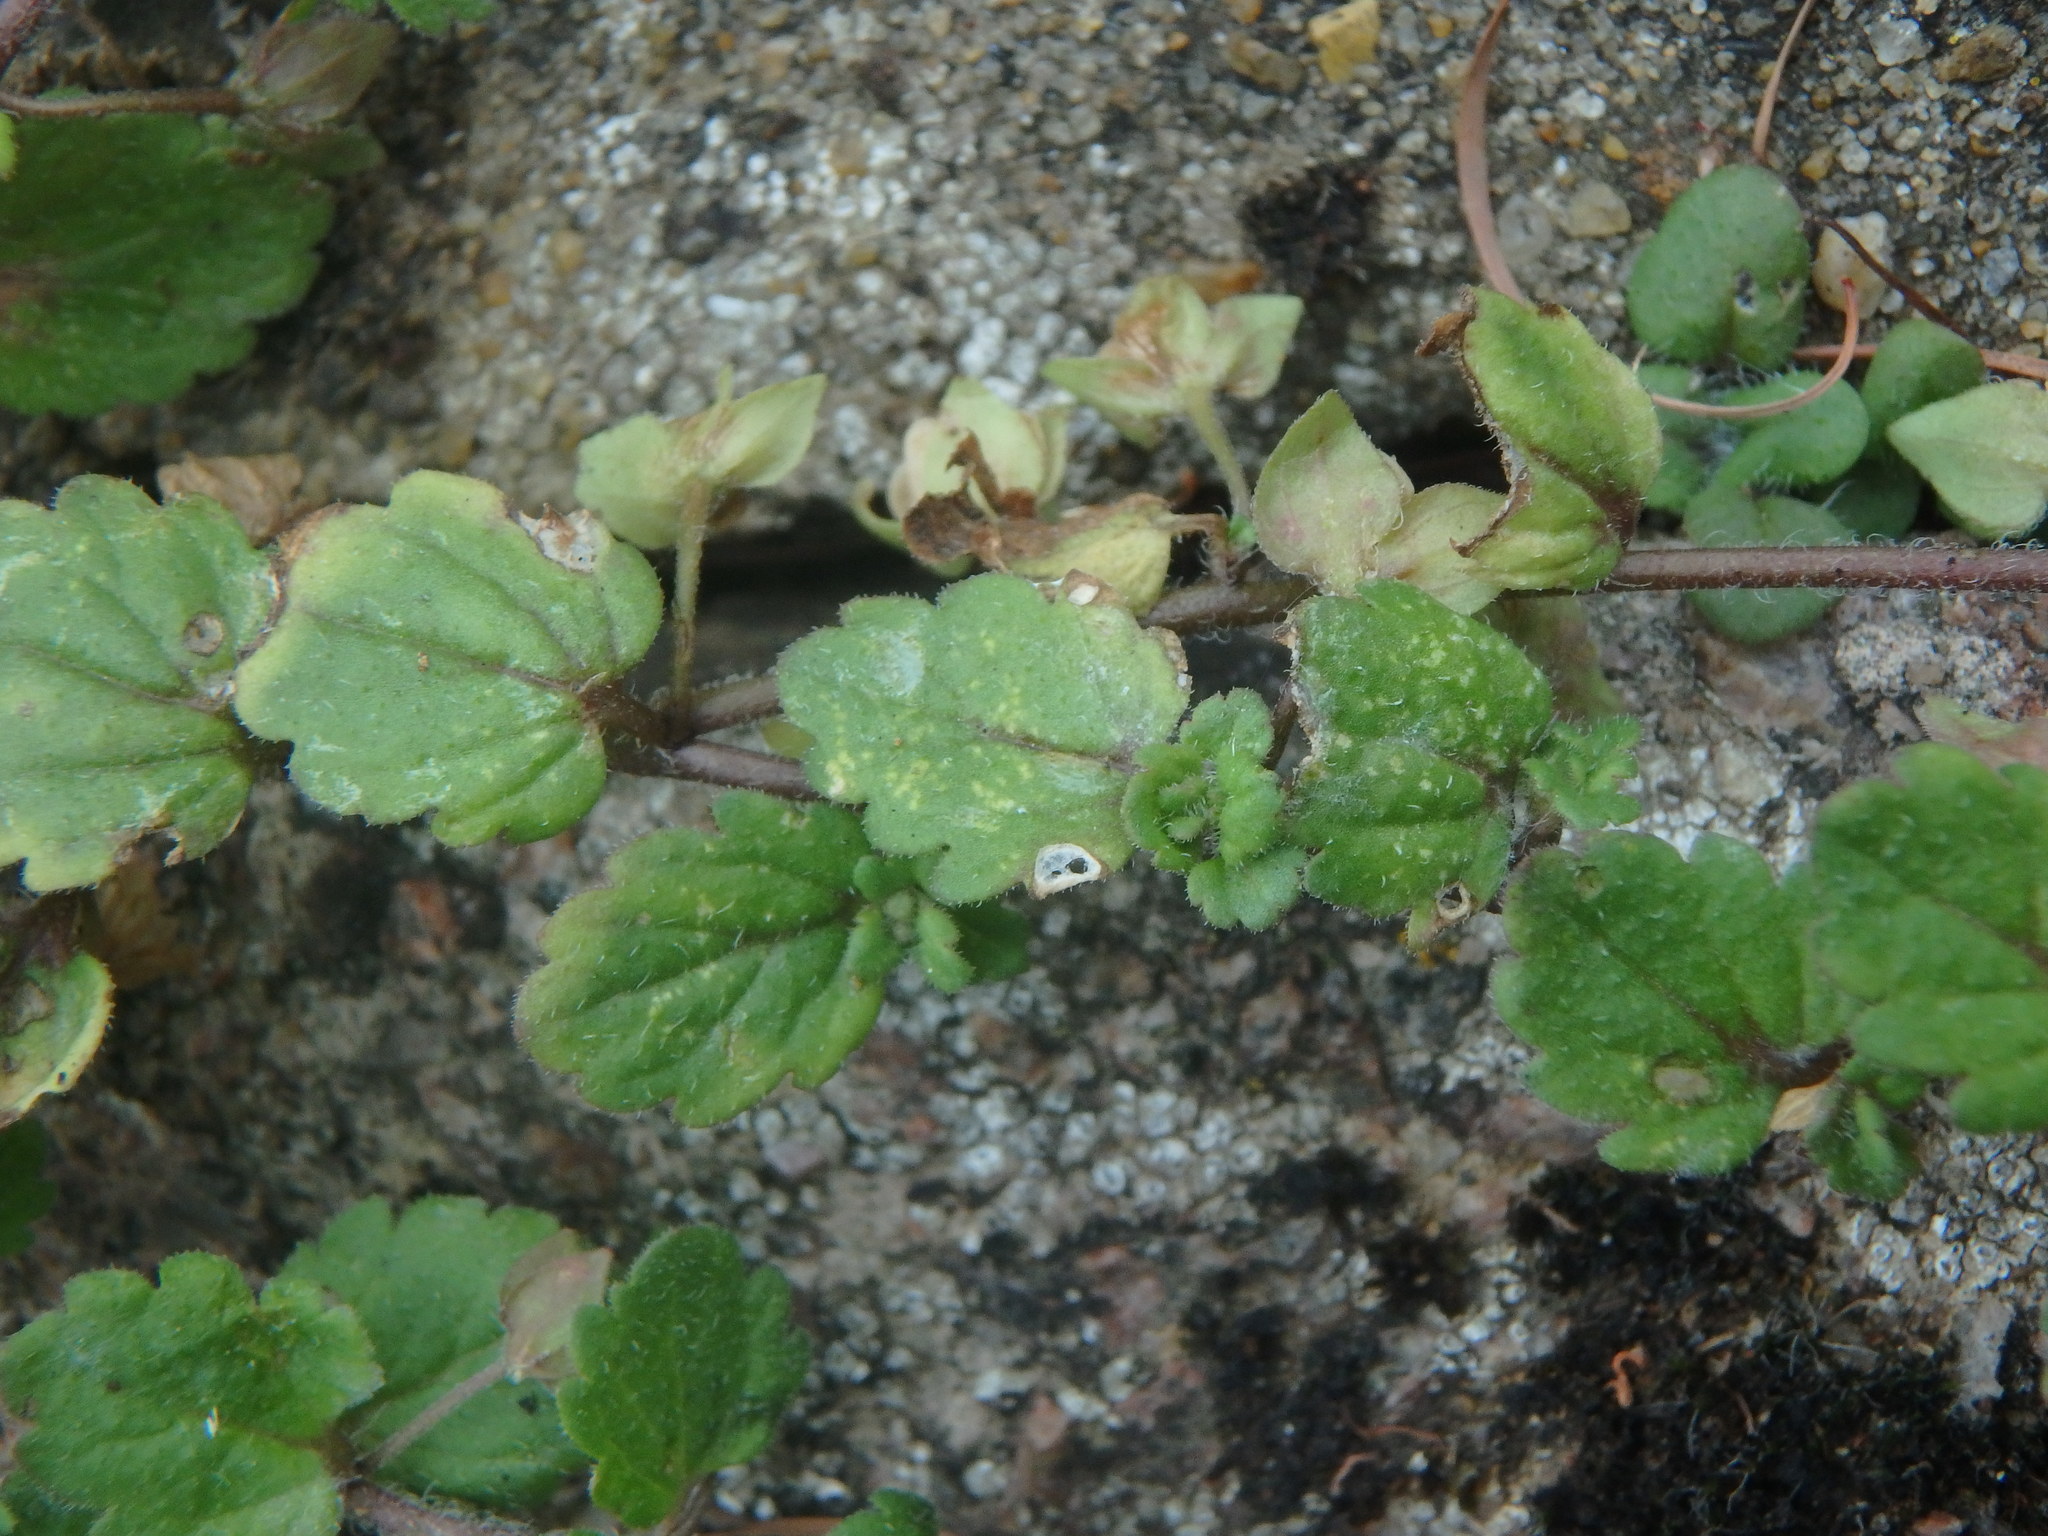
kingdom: Plantae
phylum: Tracheophyta
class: Magnoliopsida
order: Lamiales
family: Plantaginaceae
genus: Veronica
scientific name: Veronica polita
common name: Grey field-speedwell
